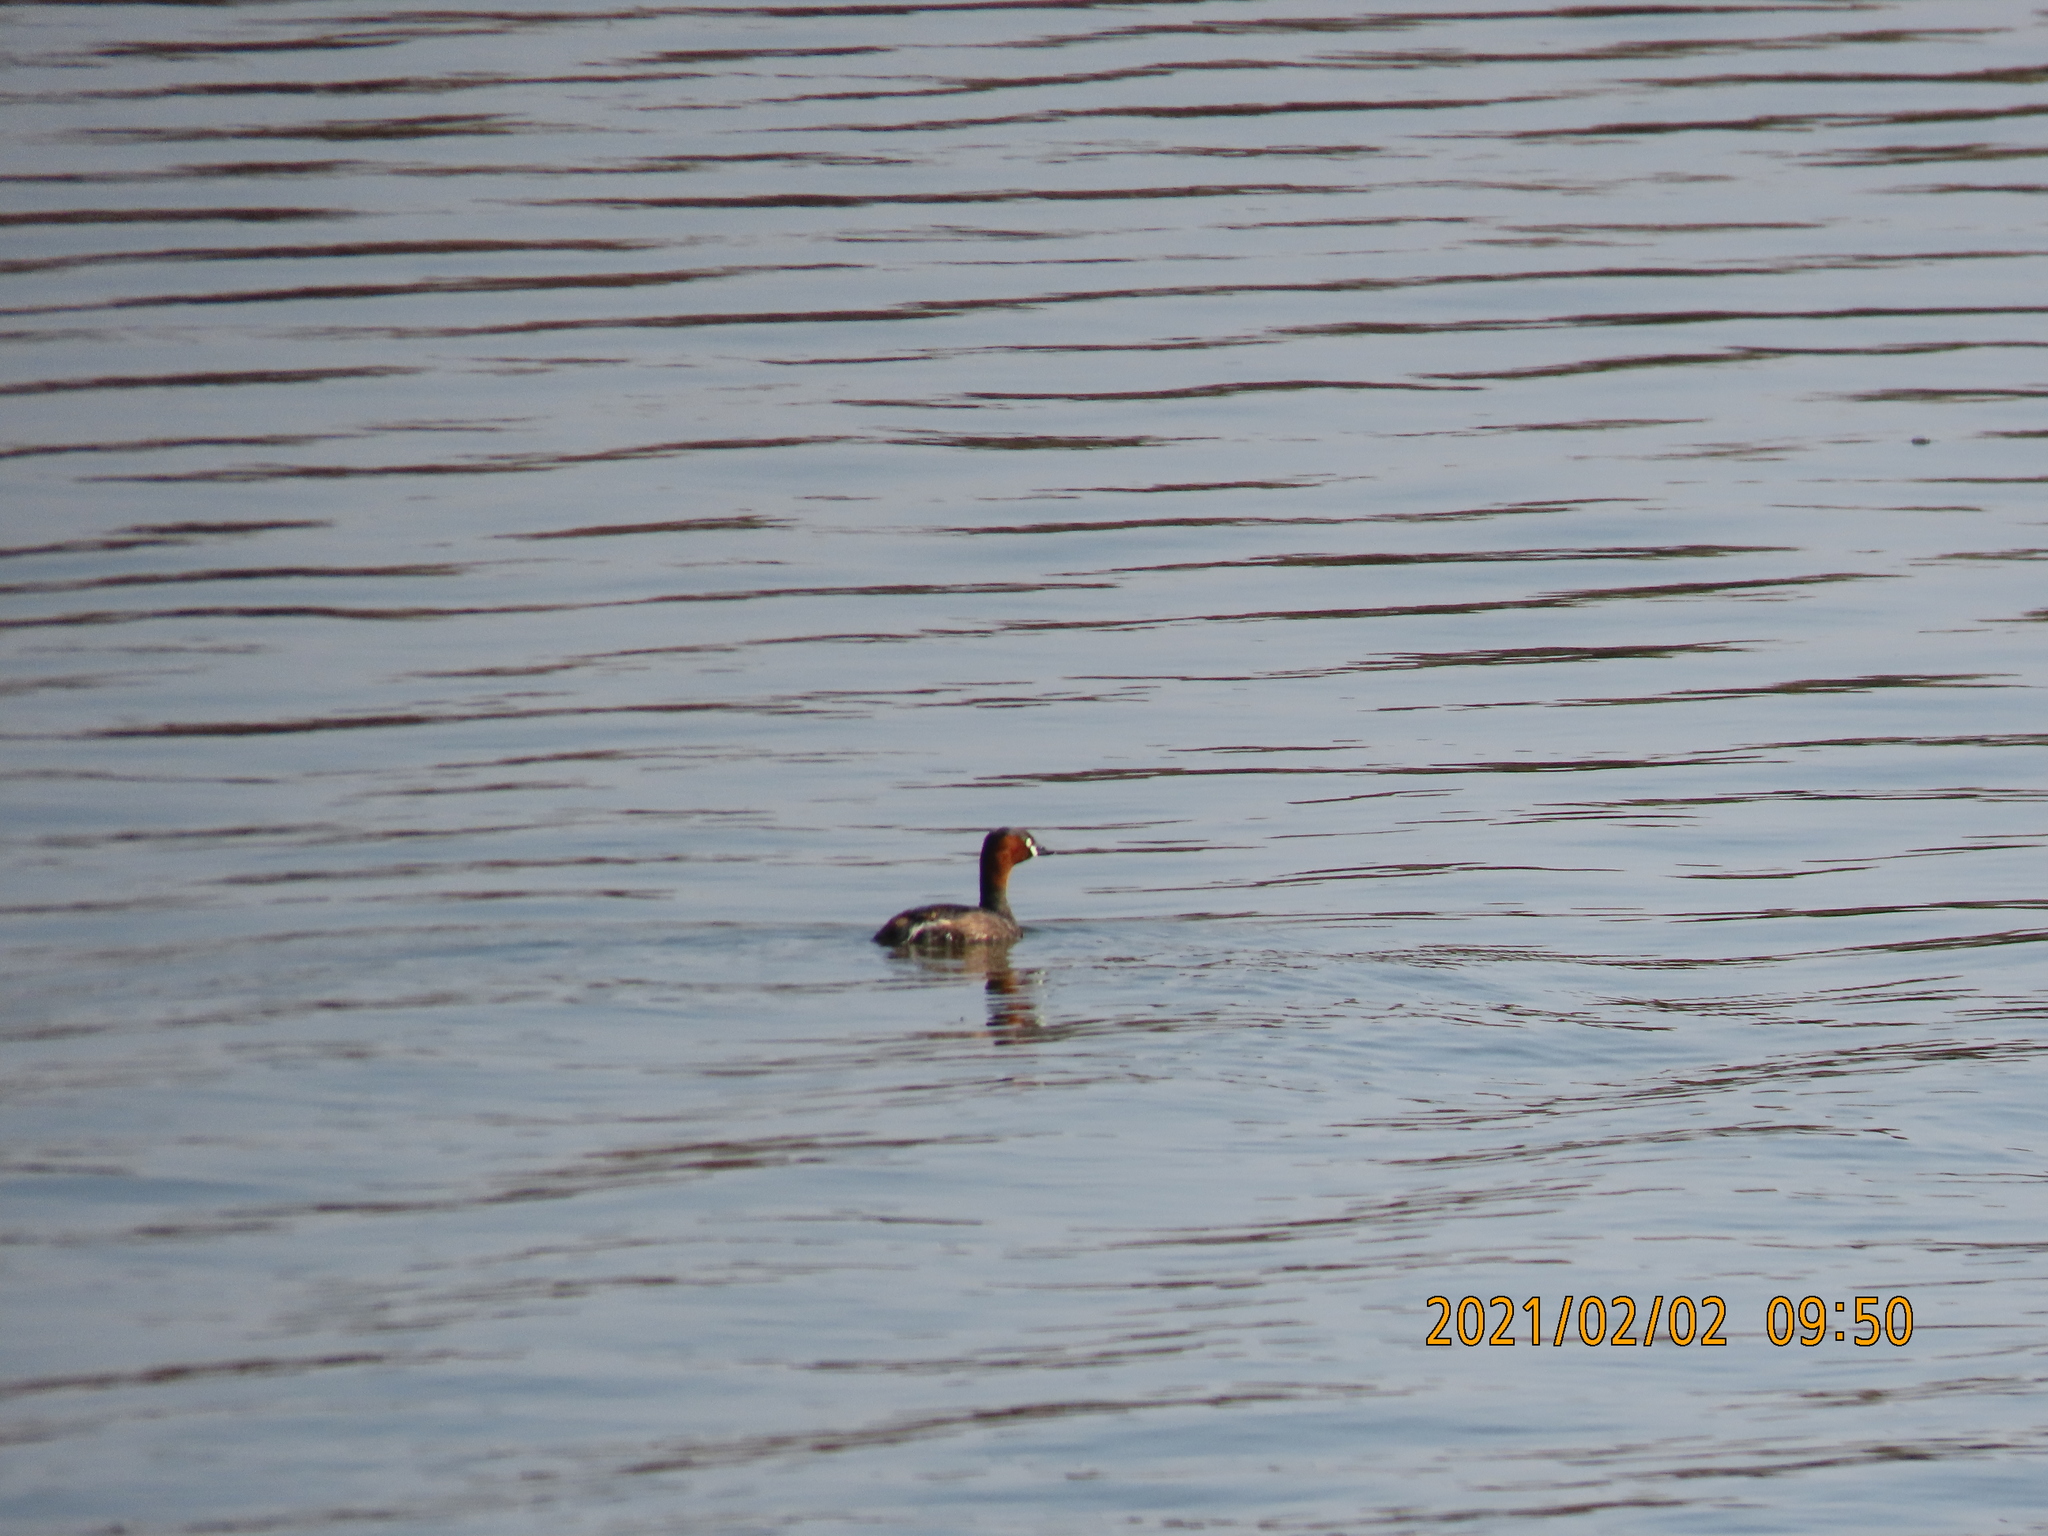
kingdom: Animalia
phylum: Chordata
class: Aves
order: Podicipediformes
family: Podicipedidae
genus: Tachybaptus
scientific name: Tachybaptus ruficollis
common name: Little grebe
